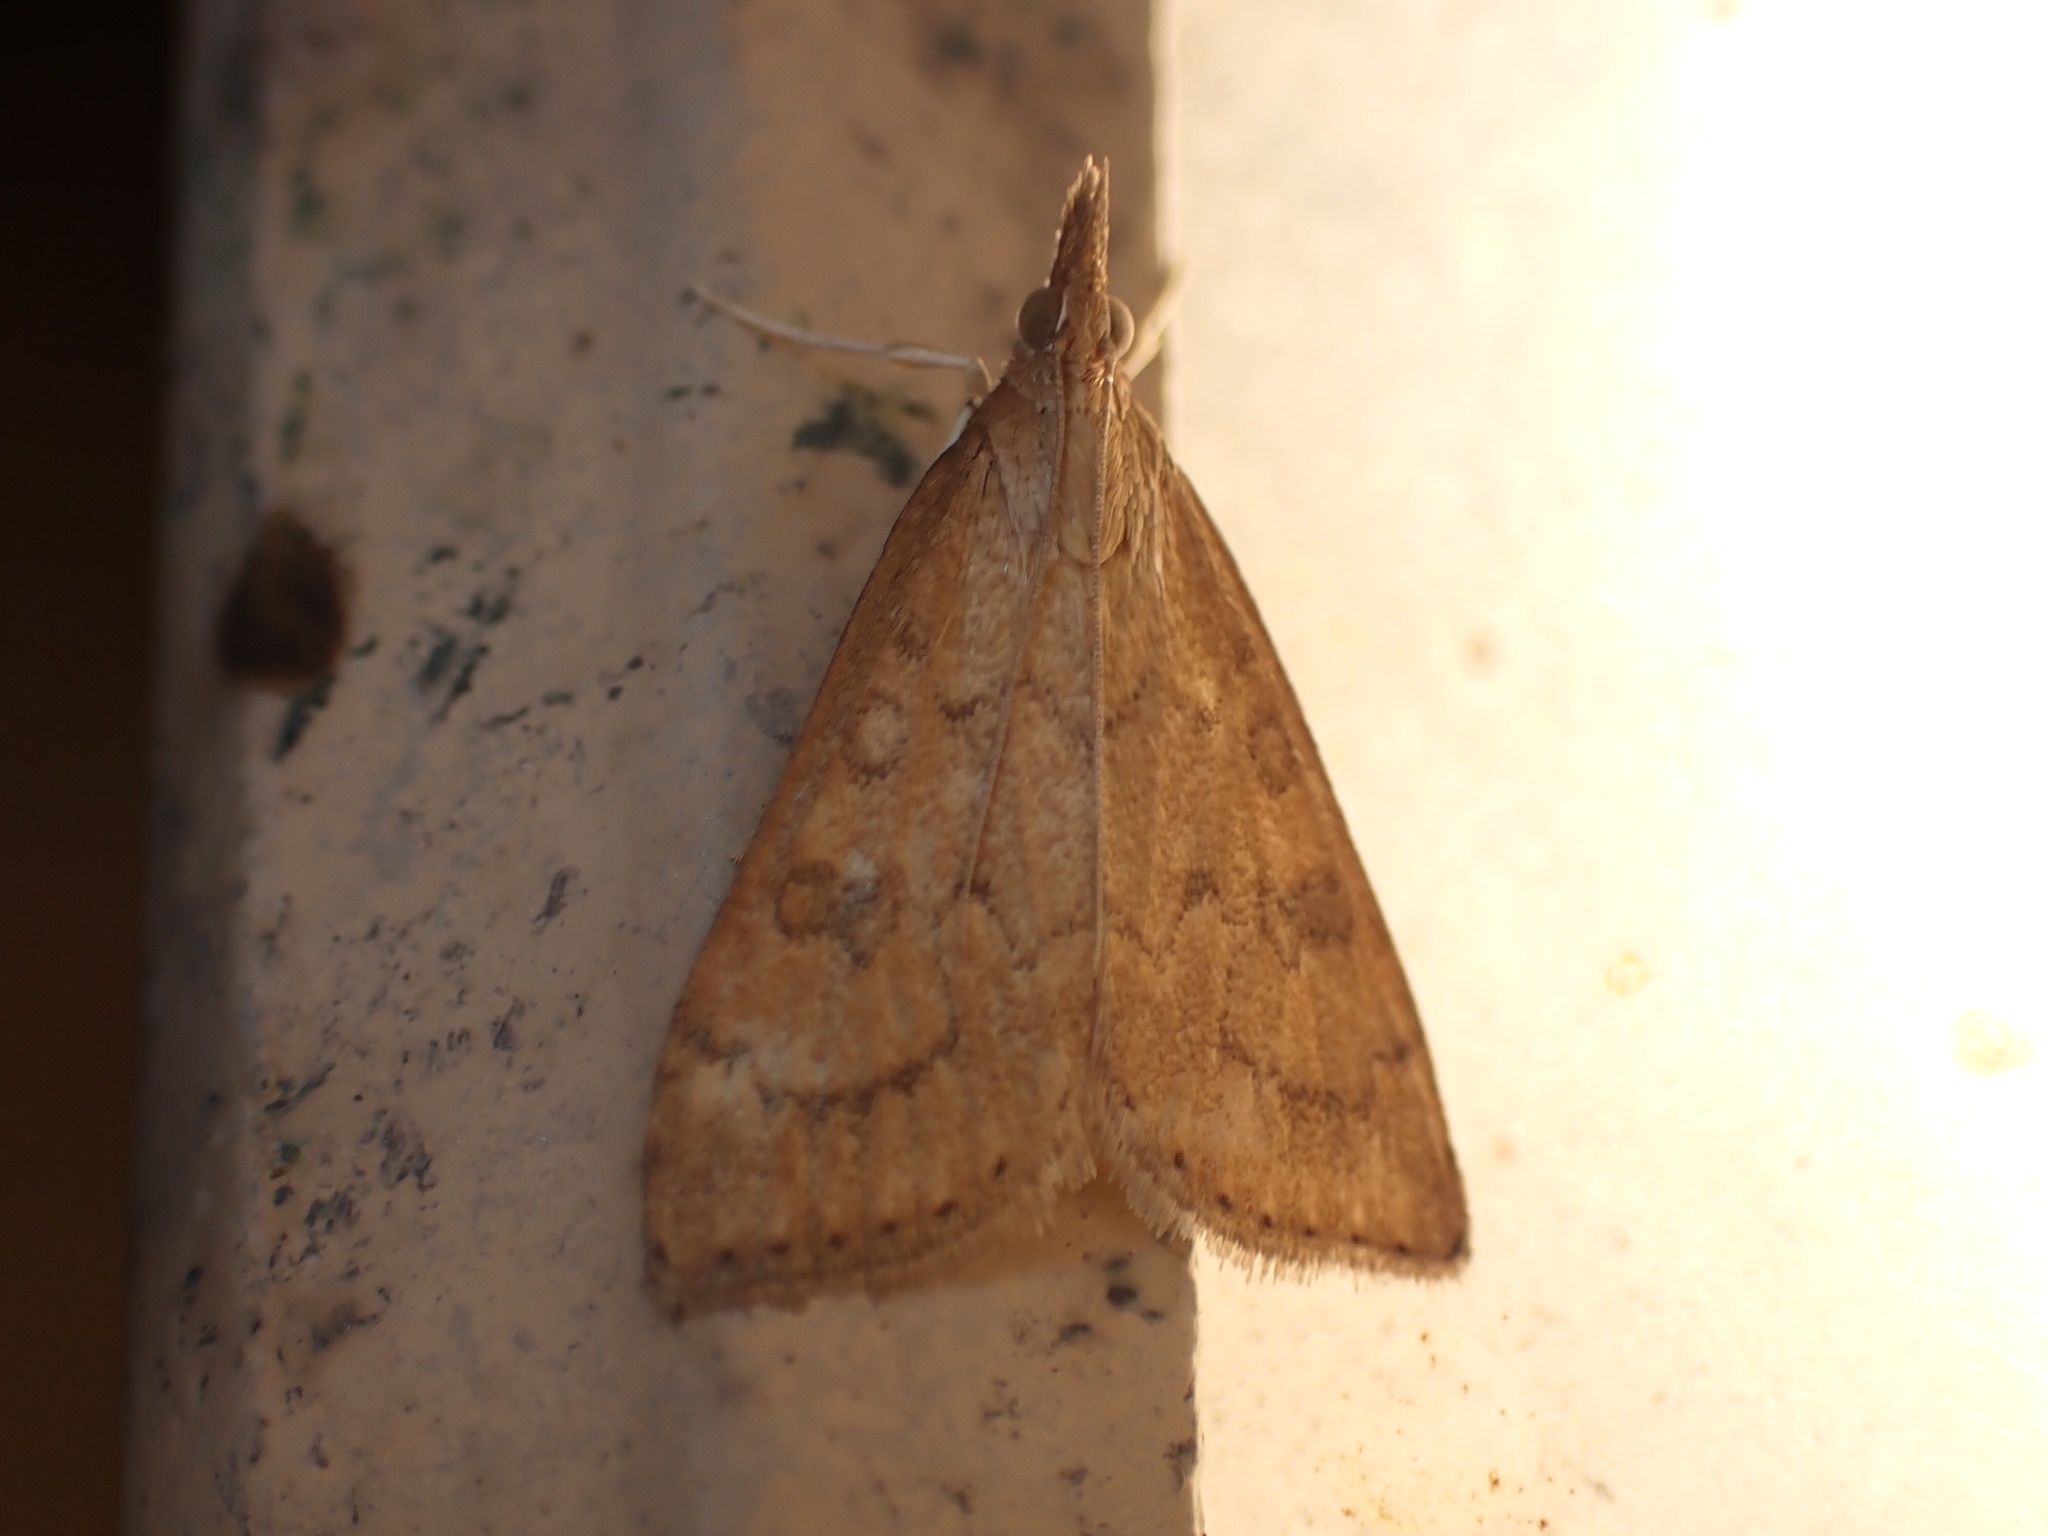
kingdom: Animalia
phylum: Arthropoda
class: Insecta
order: Lepidoptera
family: Crambidae
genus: Udea
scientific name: Udea rubigalis
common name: Celery leaftier moth
